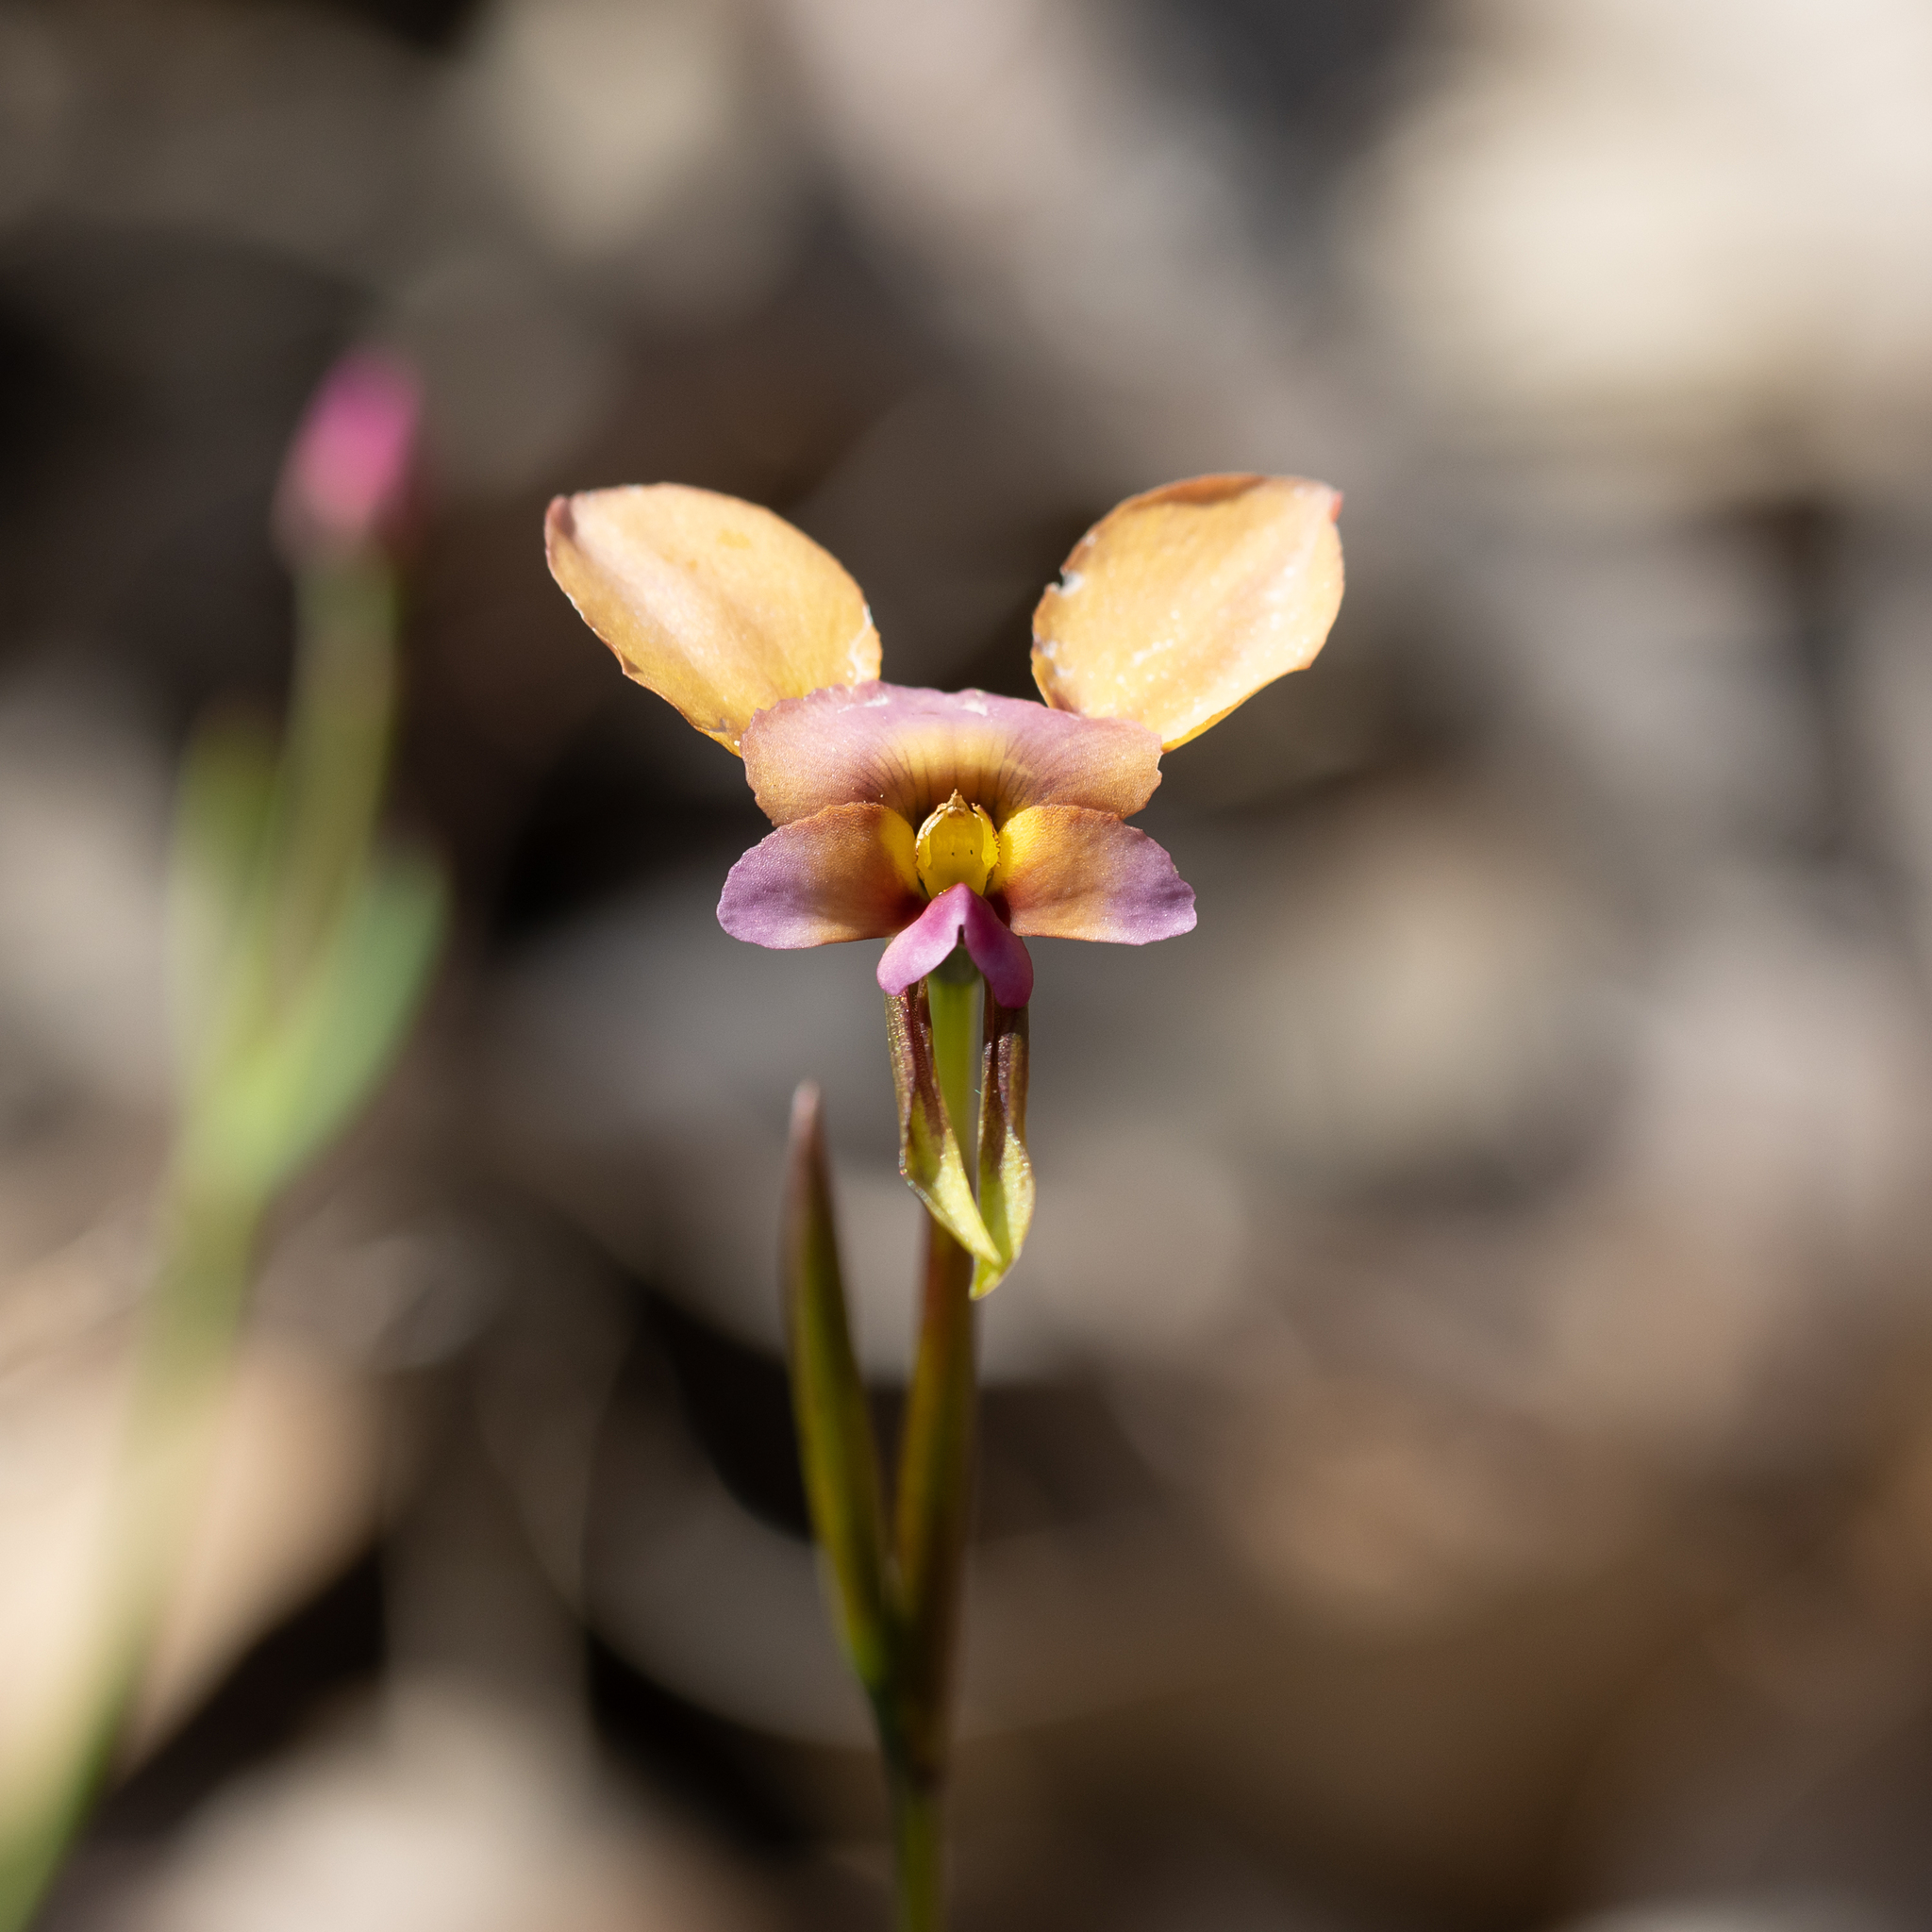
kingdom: Plantae
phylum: Tracheophyta
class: Liliopsida
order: Asparagales
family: Orchidaceae
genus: Diuris
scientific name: Diuris longifolia
